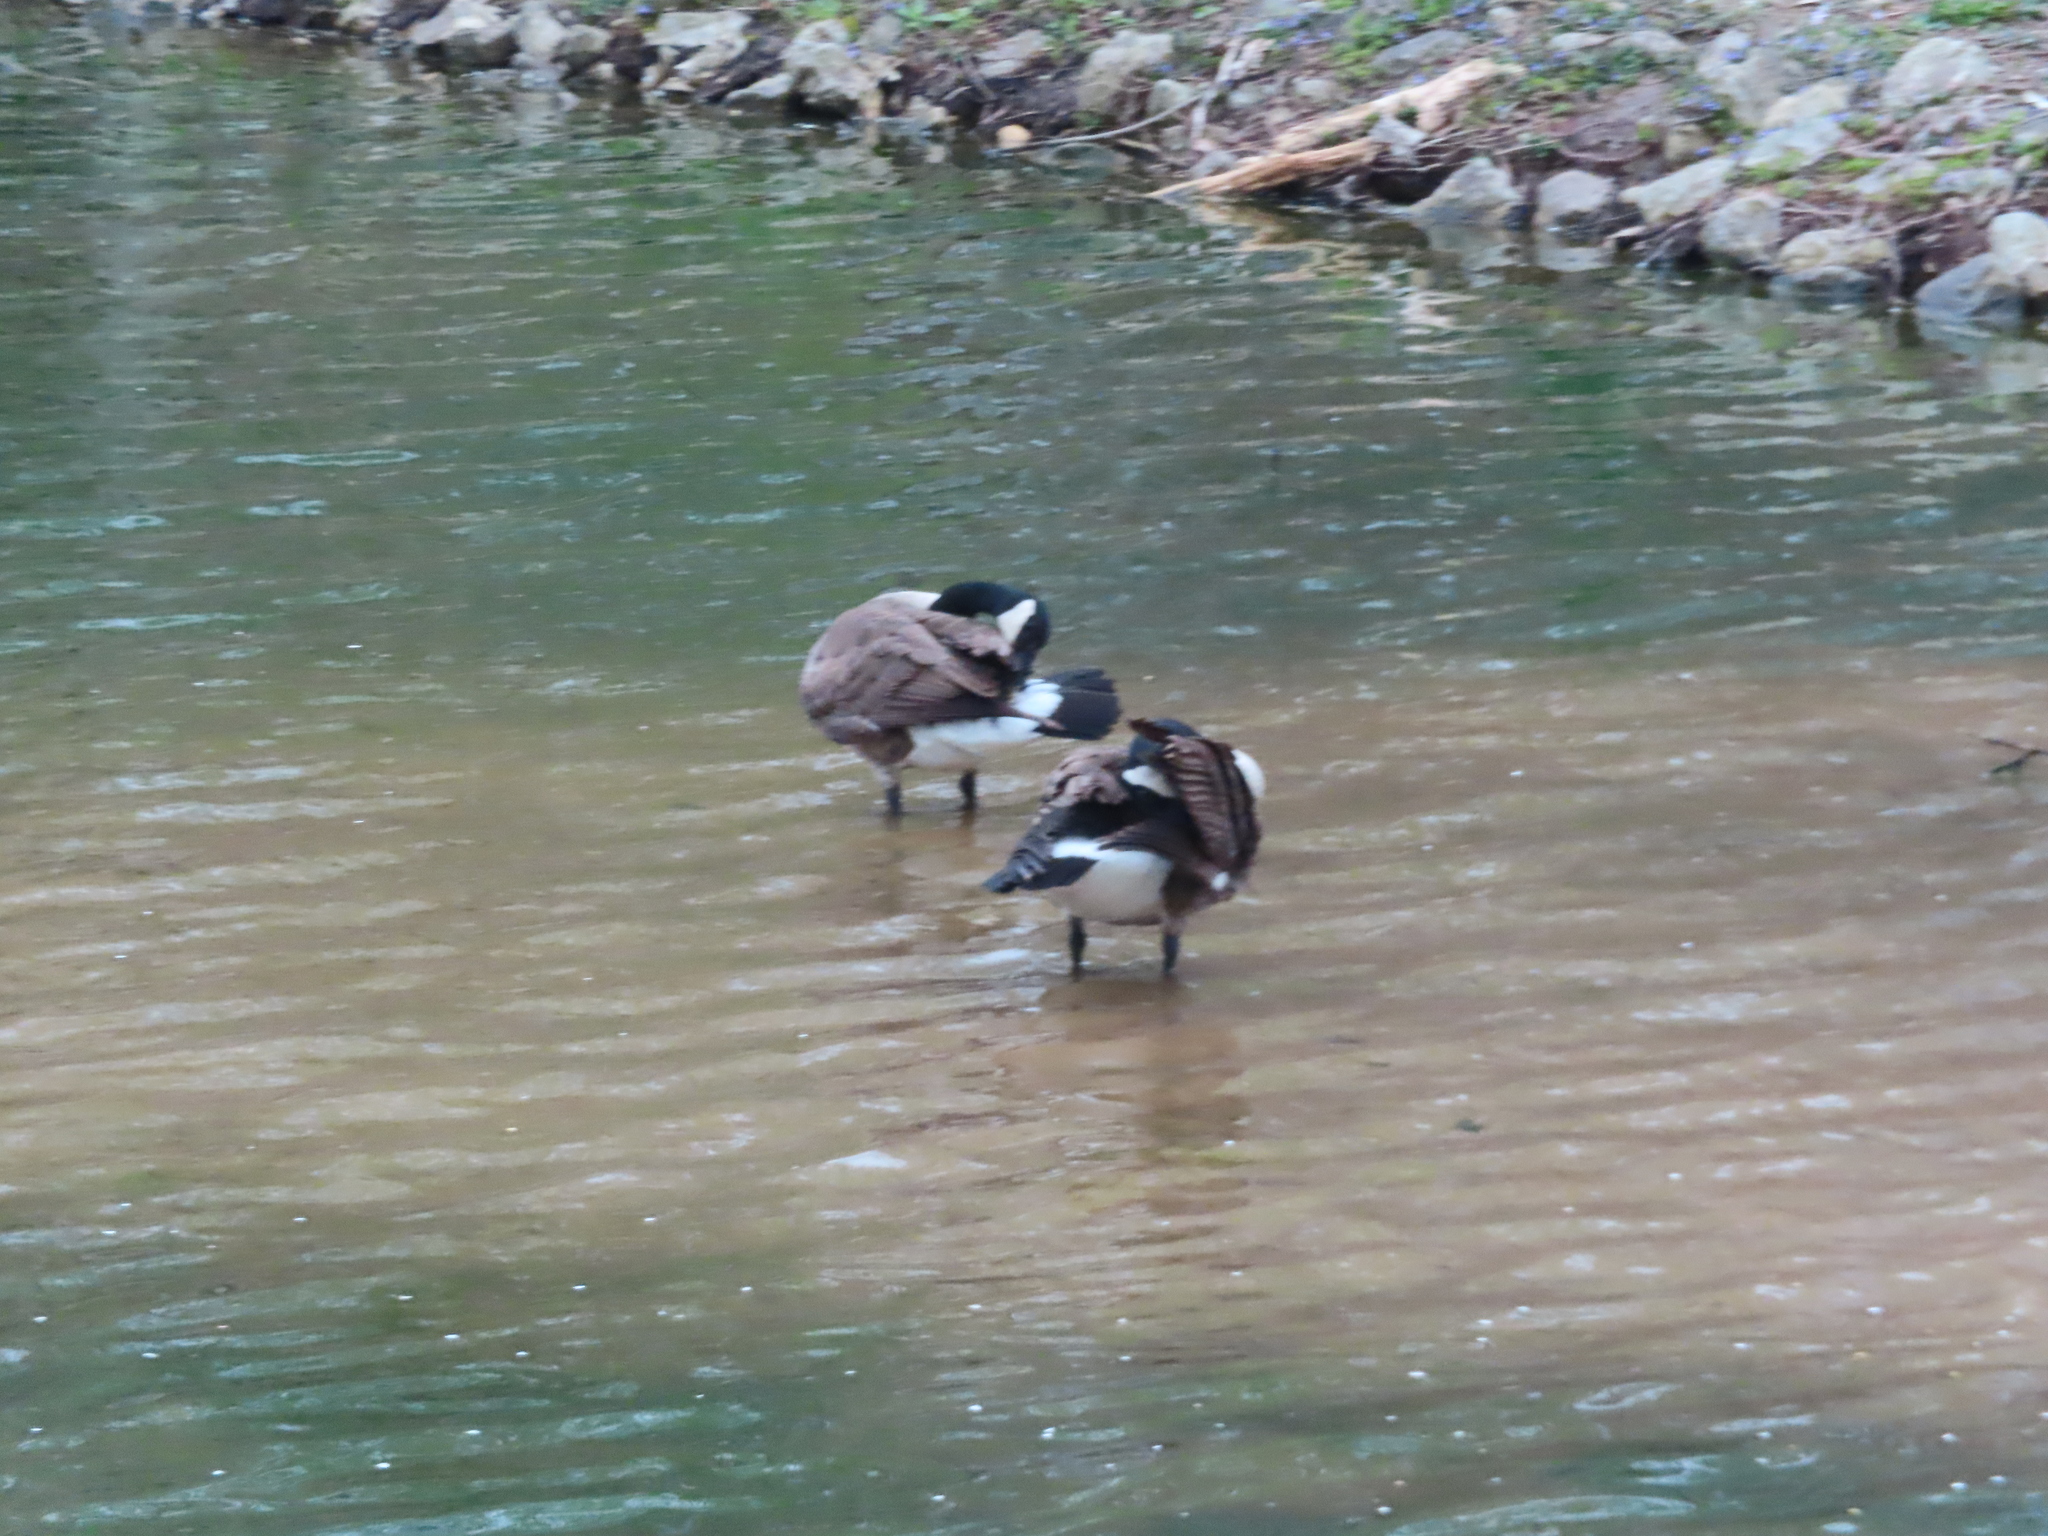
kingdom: Animalia
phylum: Chordata
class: Aves
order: Anseriformes
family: Anatidae
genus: Branta
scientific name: Branta canadensis
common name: Canada goose
